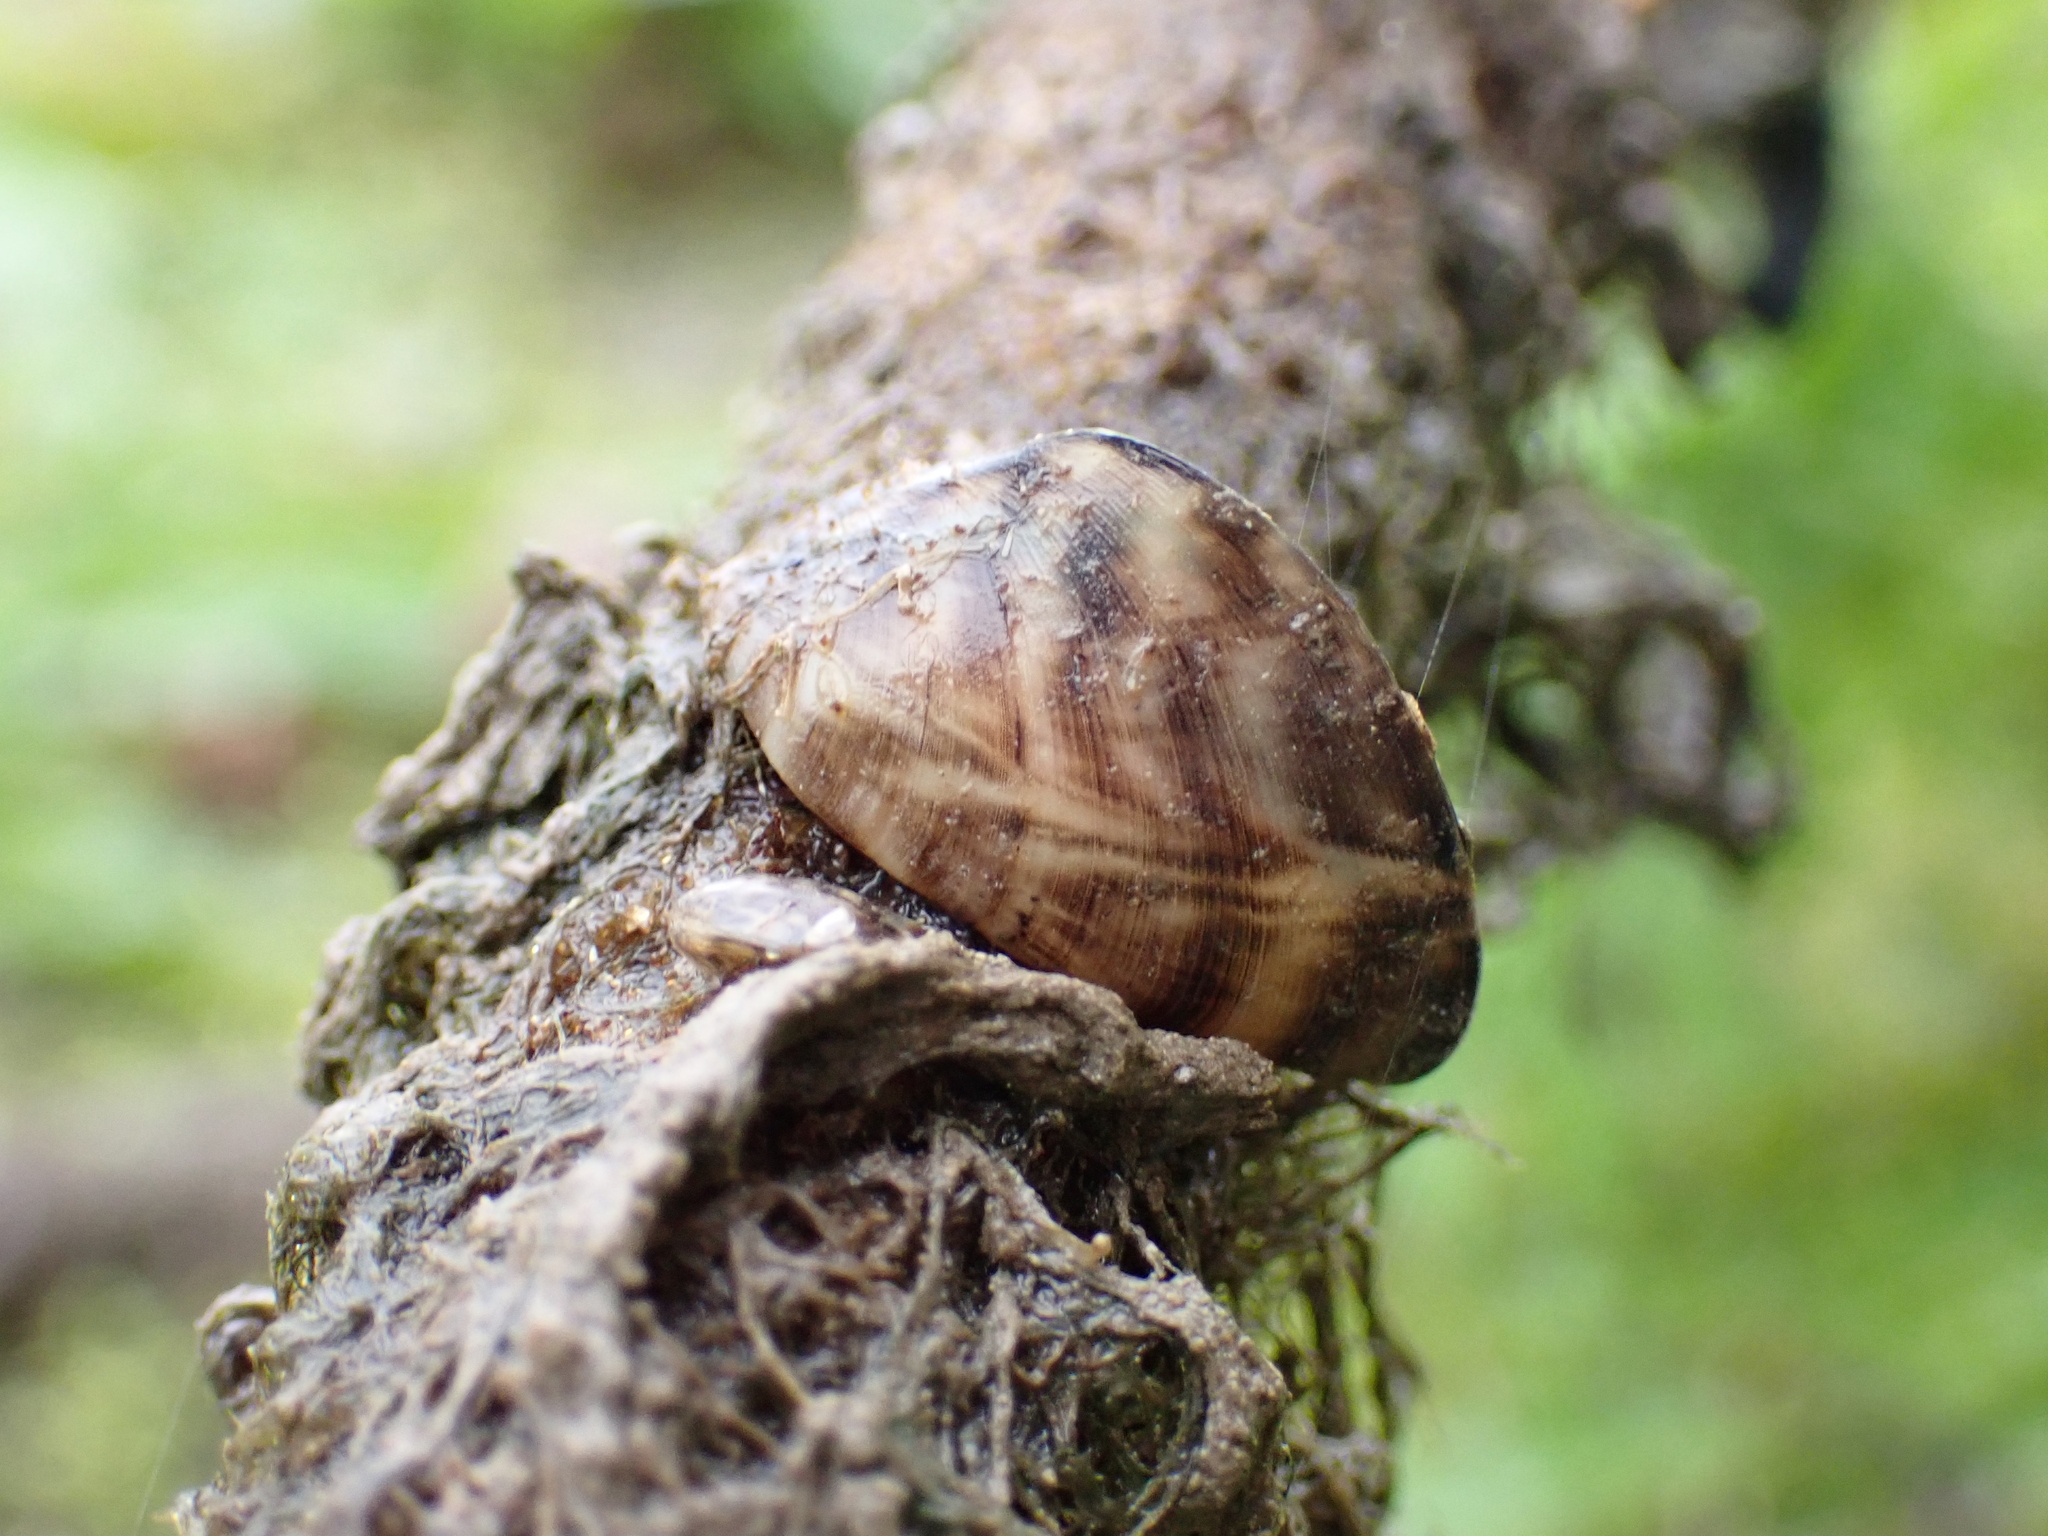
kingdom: Animalia
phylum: Mollusca
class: Bivalvia
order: Myida
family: Dreissenidae
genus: Dreissena
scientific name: Dreissena polymorpha
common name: Zebra mussel
